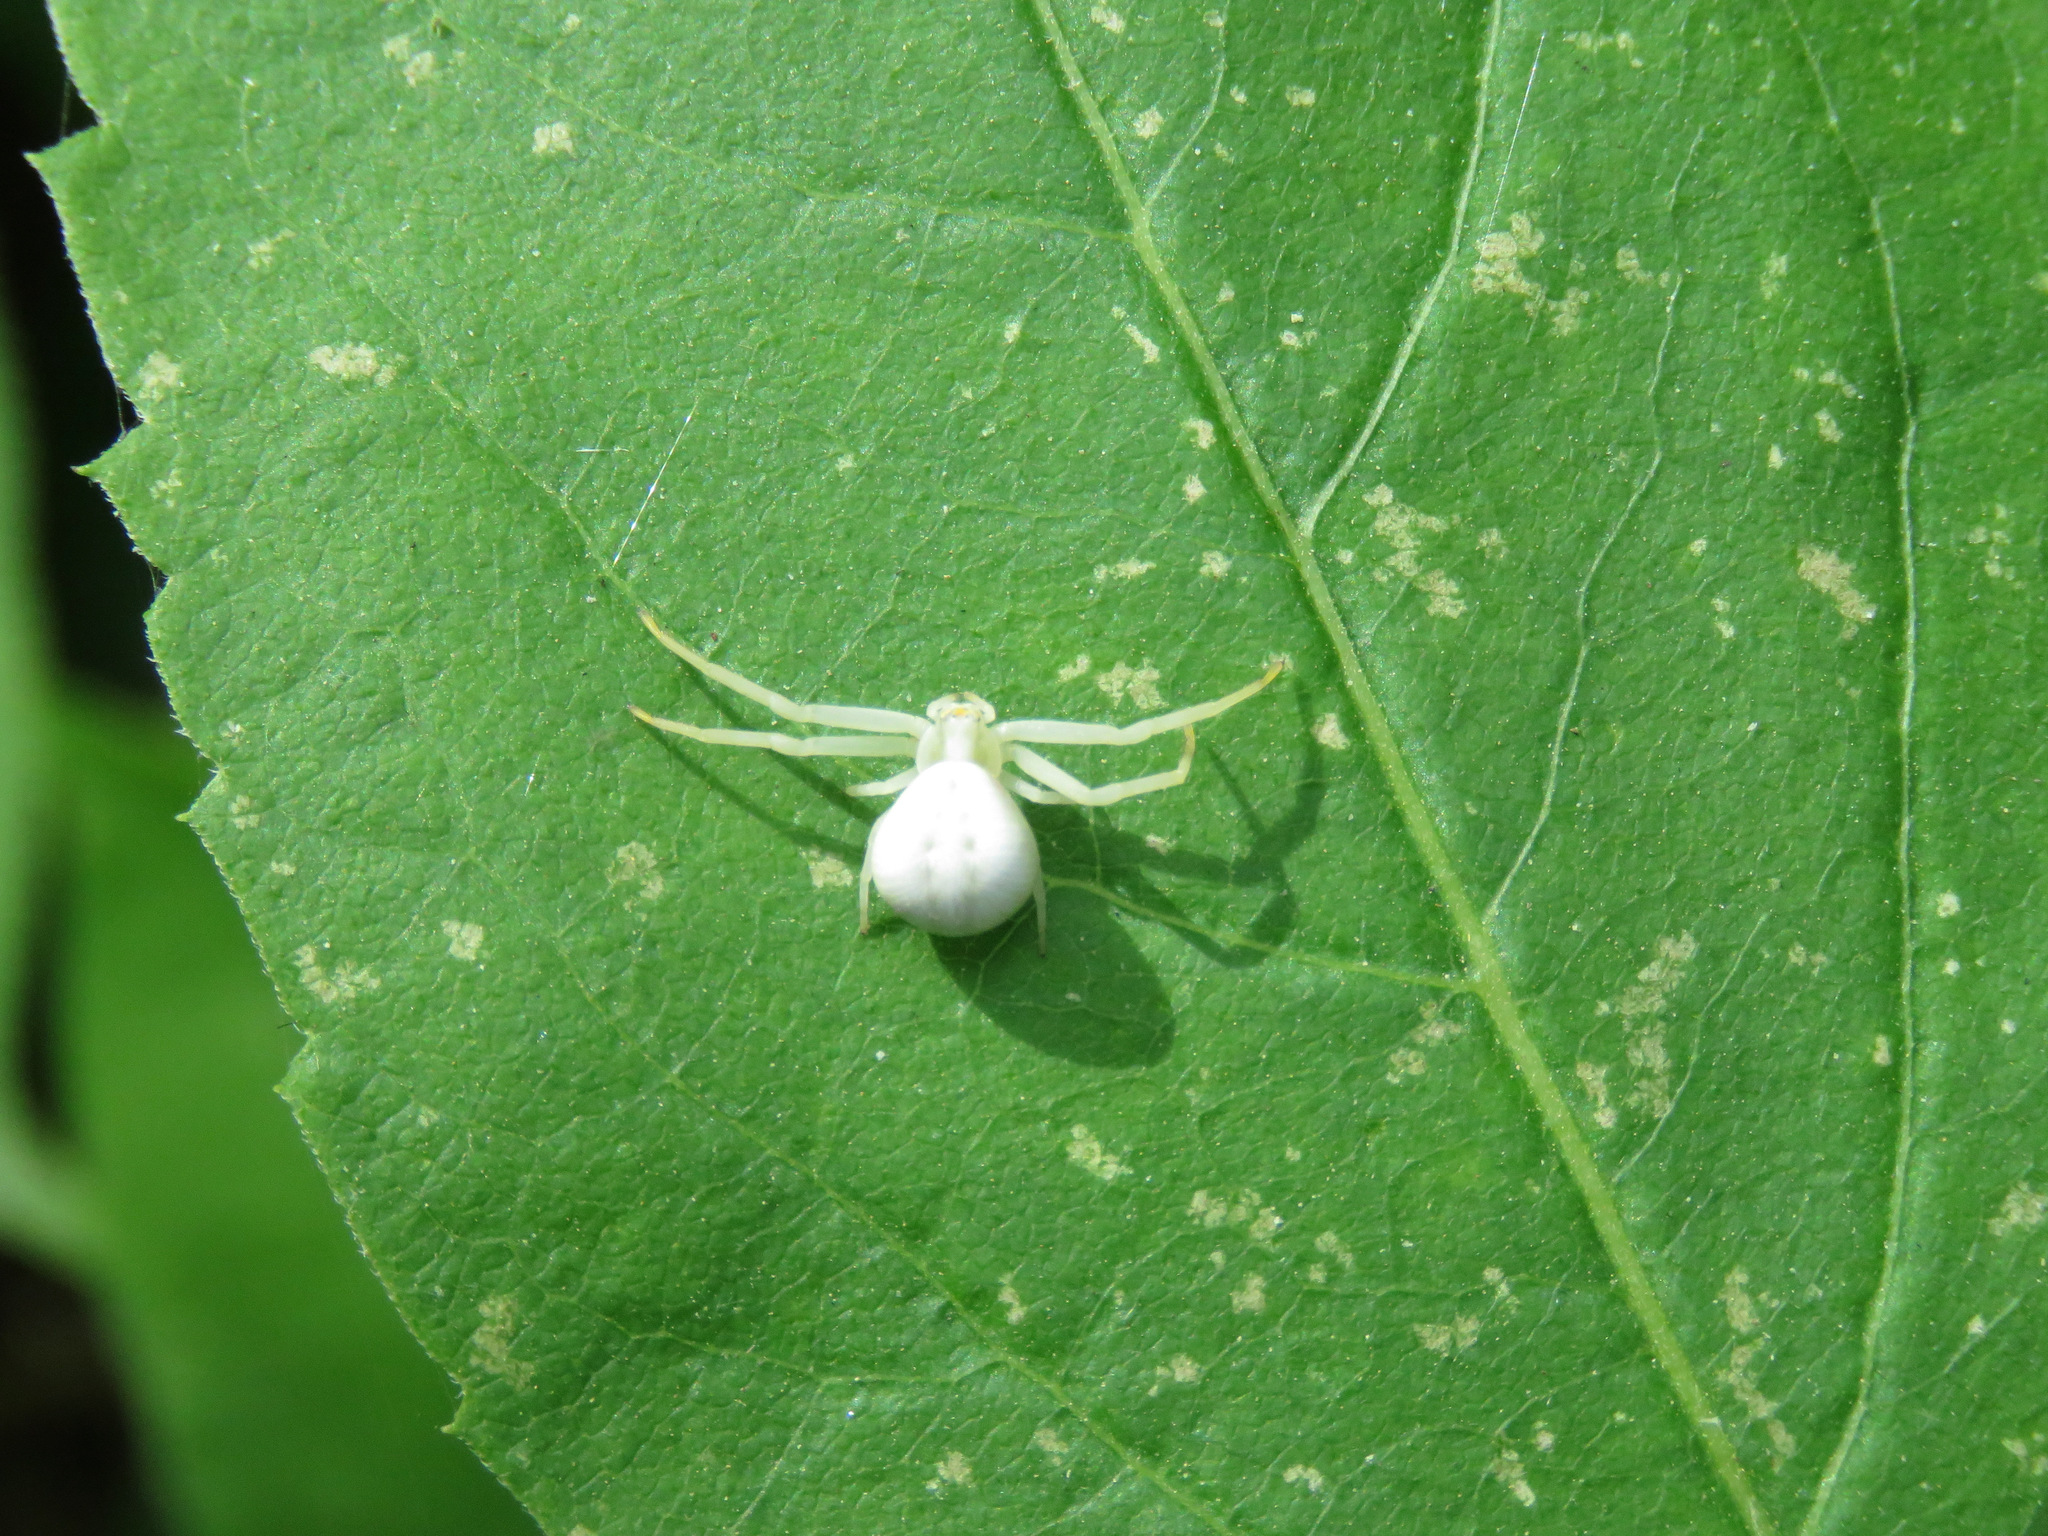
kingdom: Animalia
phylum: Arthropoda
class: Arachnida
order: Araneae
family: Thomisidae
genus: Misumena
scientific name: Misumena vatia
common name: Goldenrod crab spider
